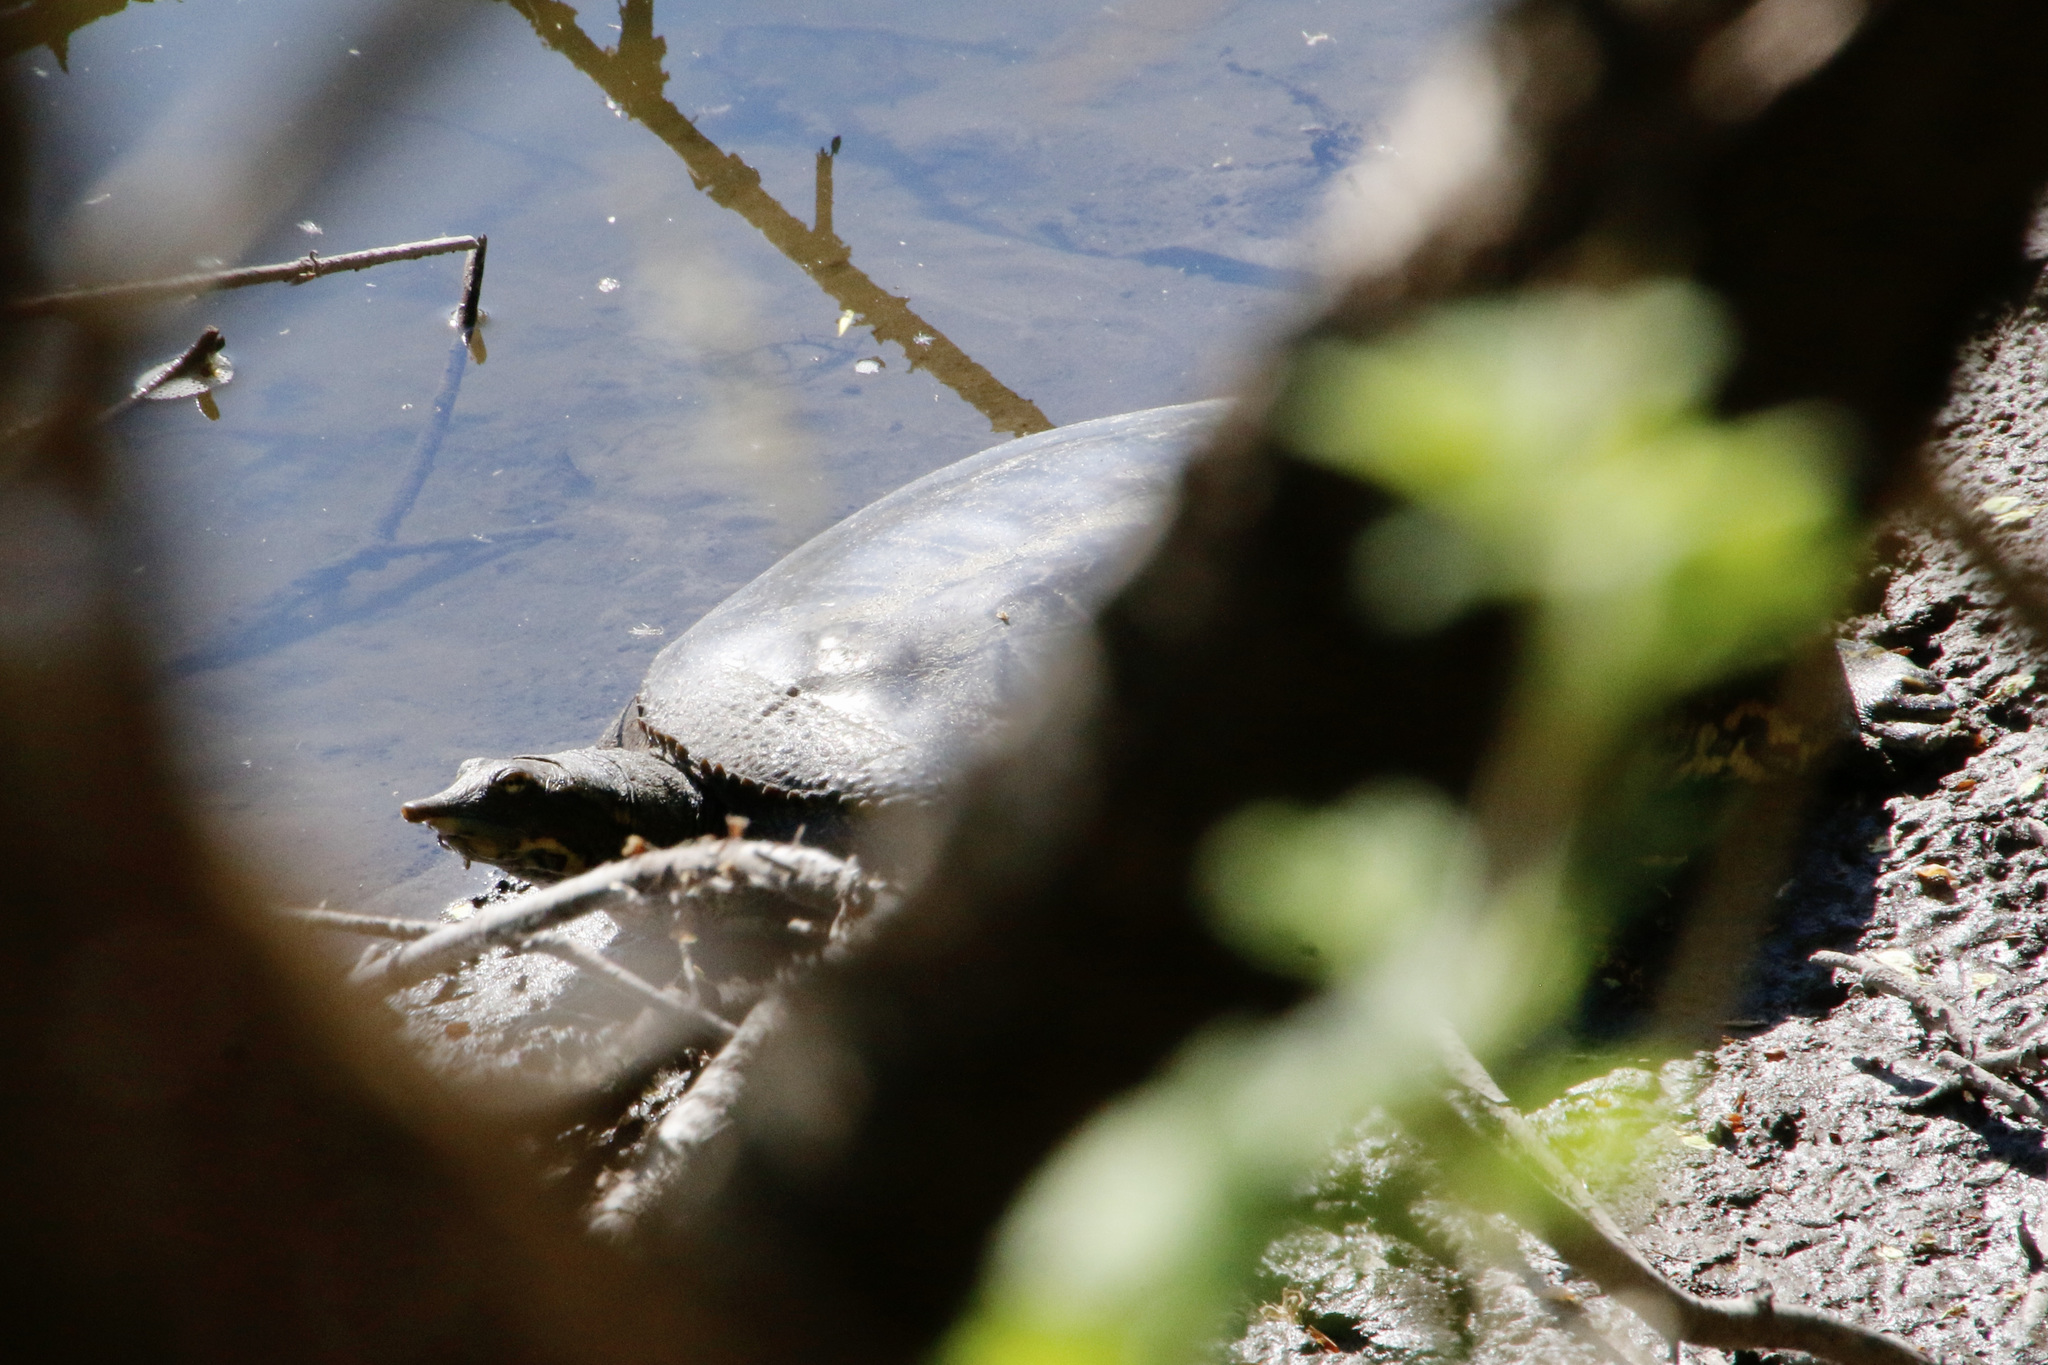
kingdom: Animalia
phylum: Chordata
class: Testudines
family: Trionychidae
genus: Apalone
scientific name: Apalone spinifera
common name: Spiny softshell turtle
